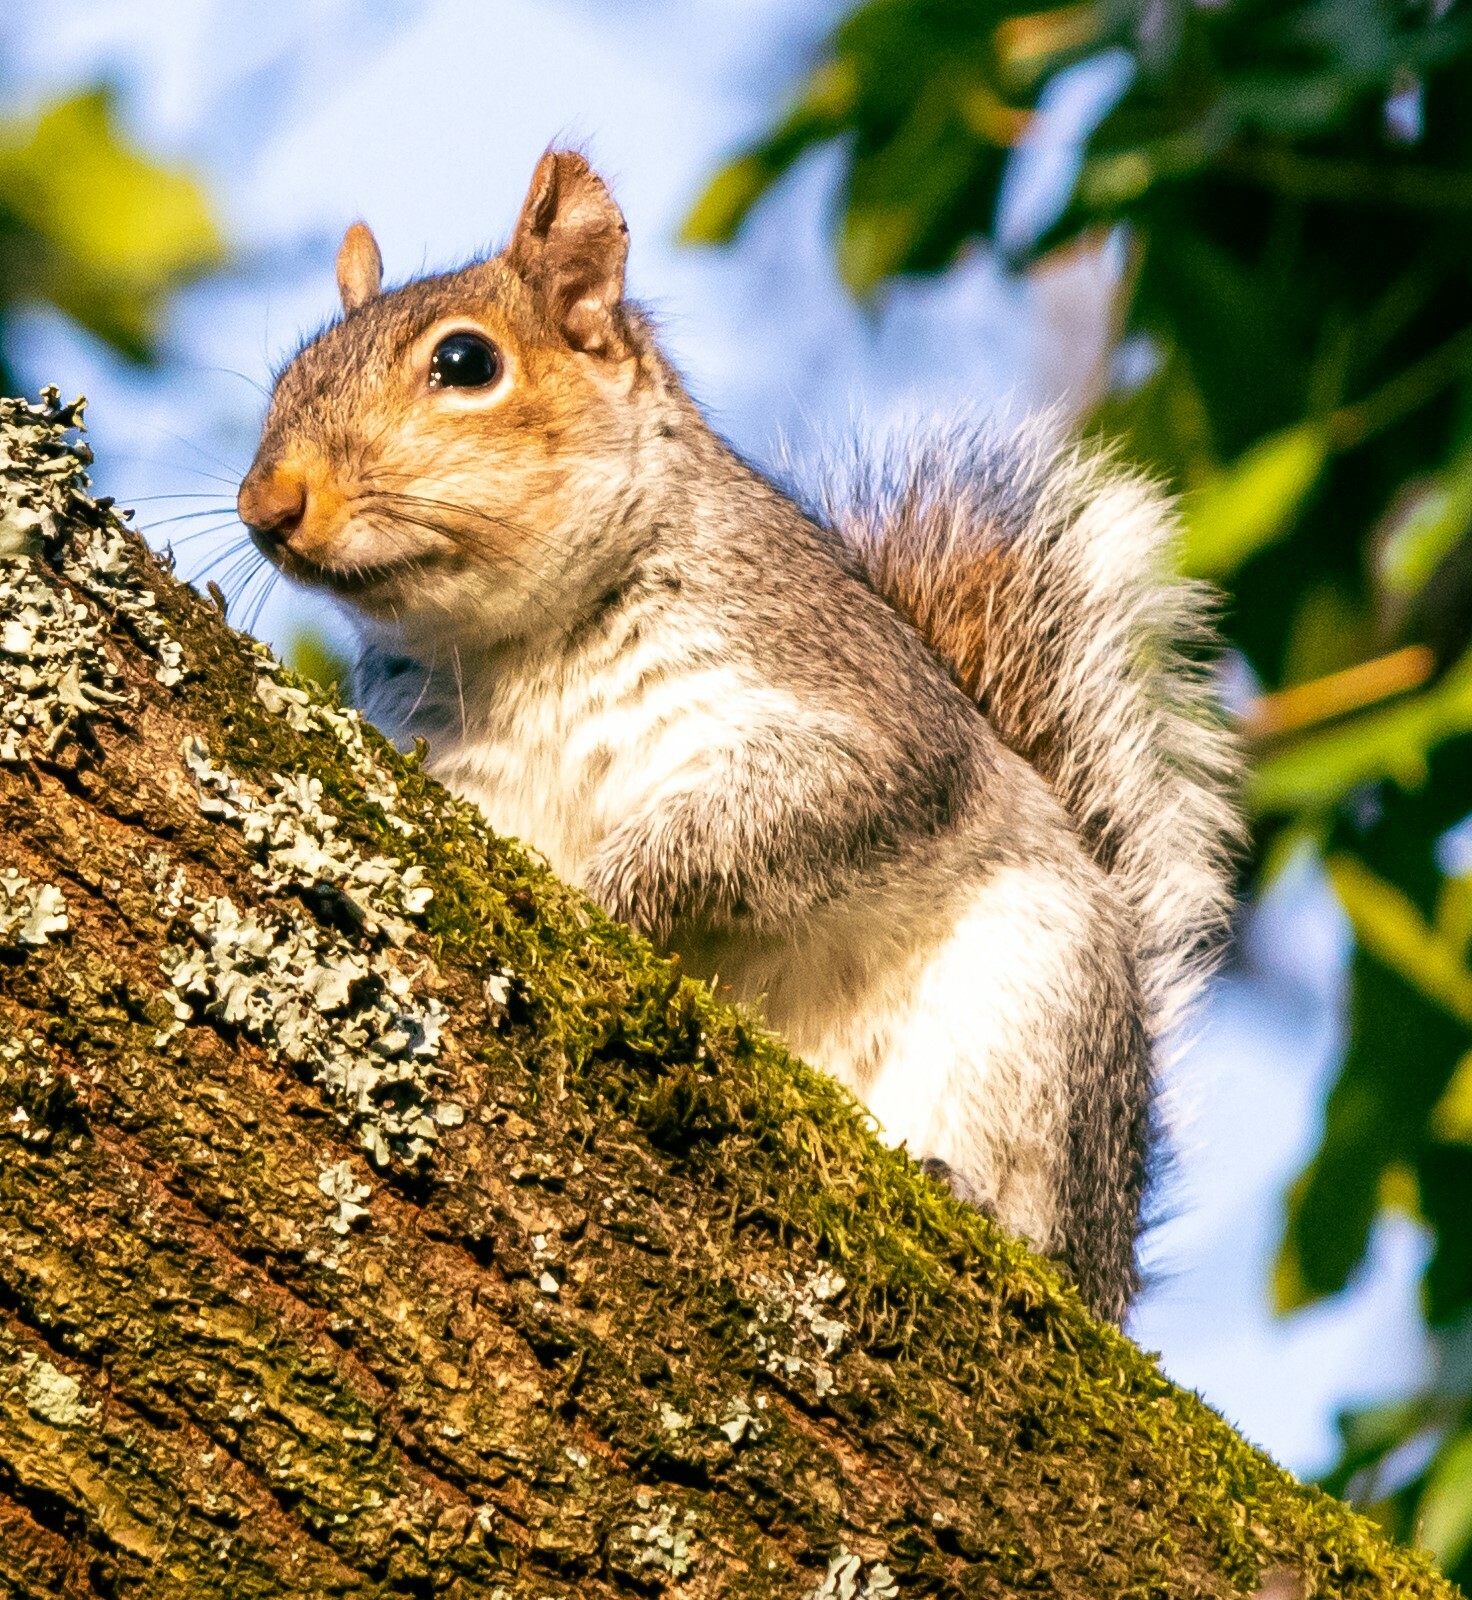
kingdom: Animalia
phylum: Chordata
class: Mammalia
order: Rodentia
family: Sciuridae
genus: Sciurus
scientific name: Sciurus carolinensis
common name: Eastern gray squirrel
